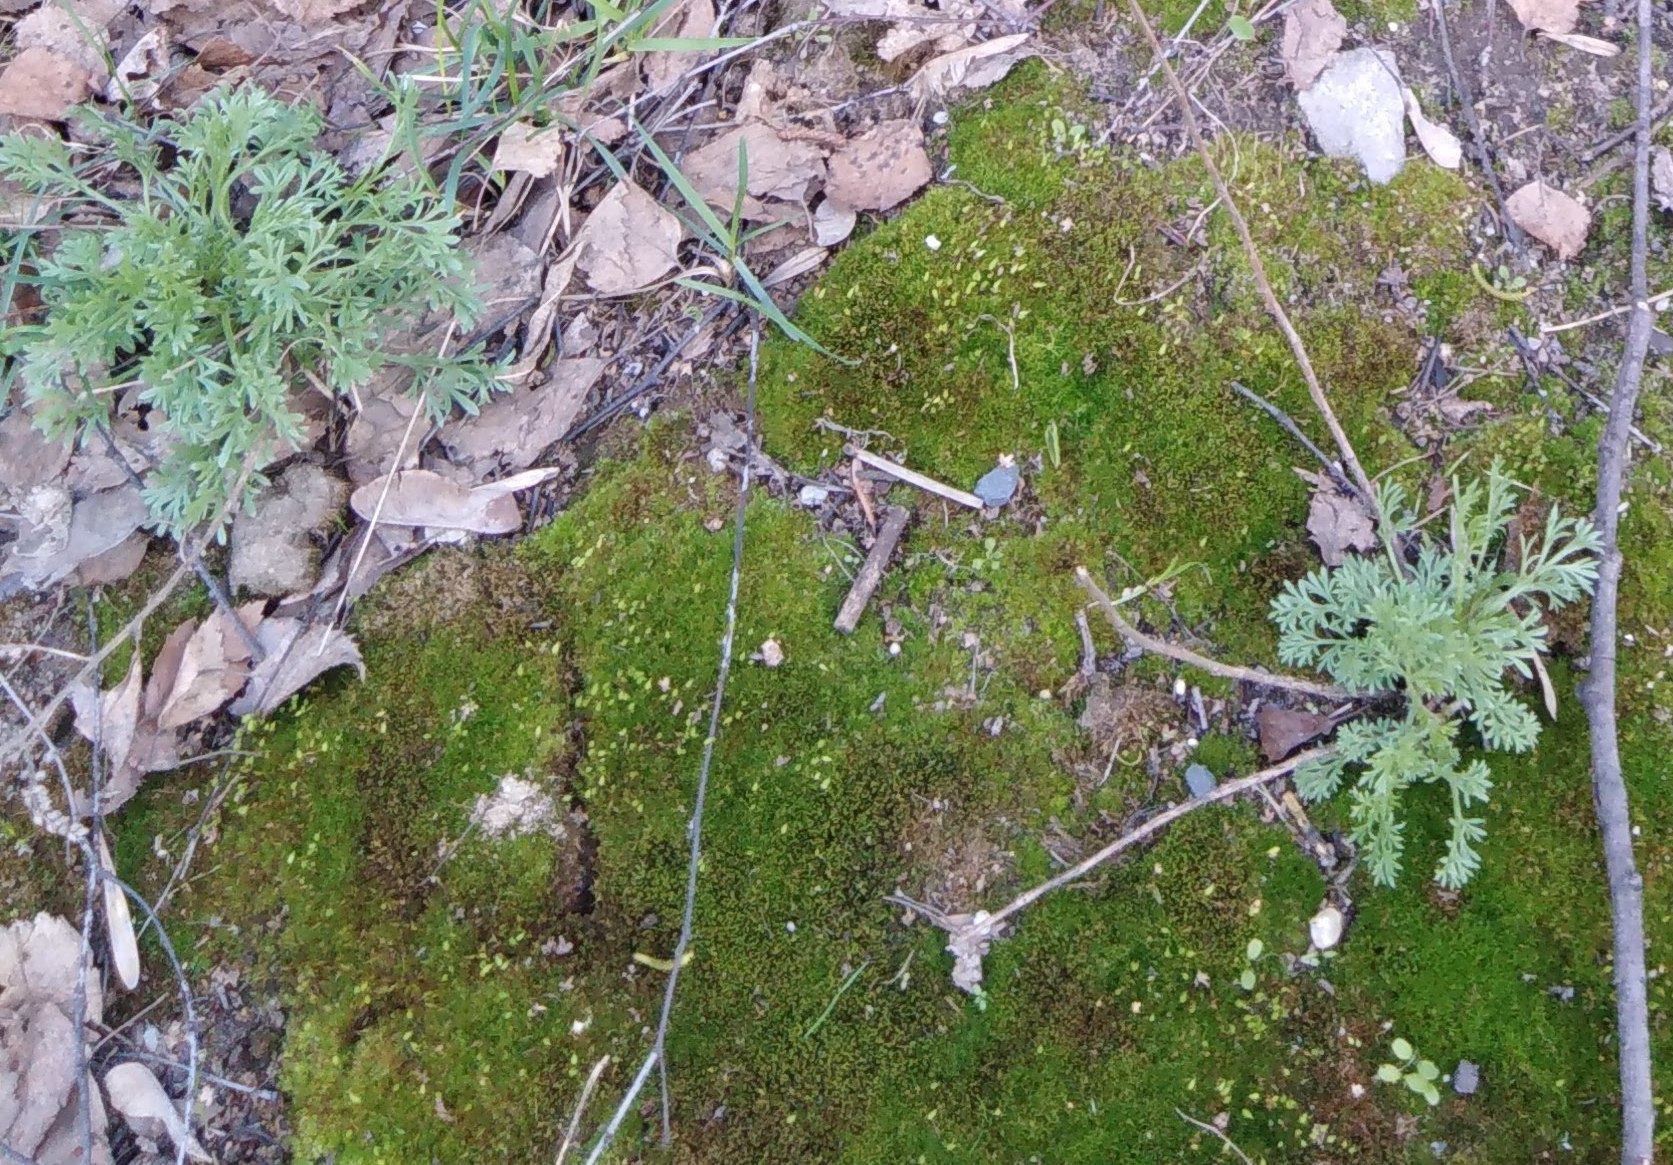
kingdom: Plantae
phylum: Tracheophyta
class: Magnoliopsida
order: Asterales
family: Asteraceae
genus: Artemisia
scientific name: Artemisia absinthium
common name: Wormwood
